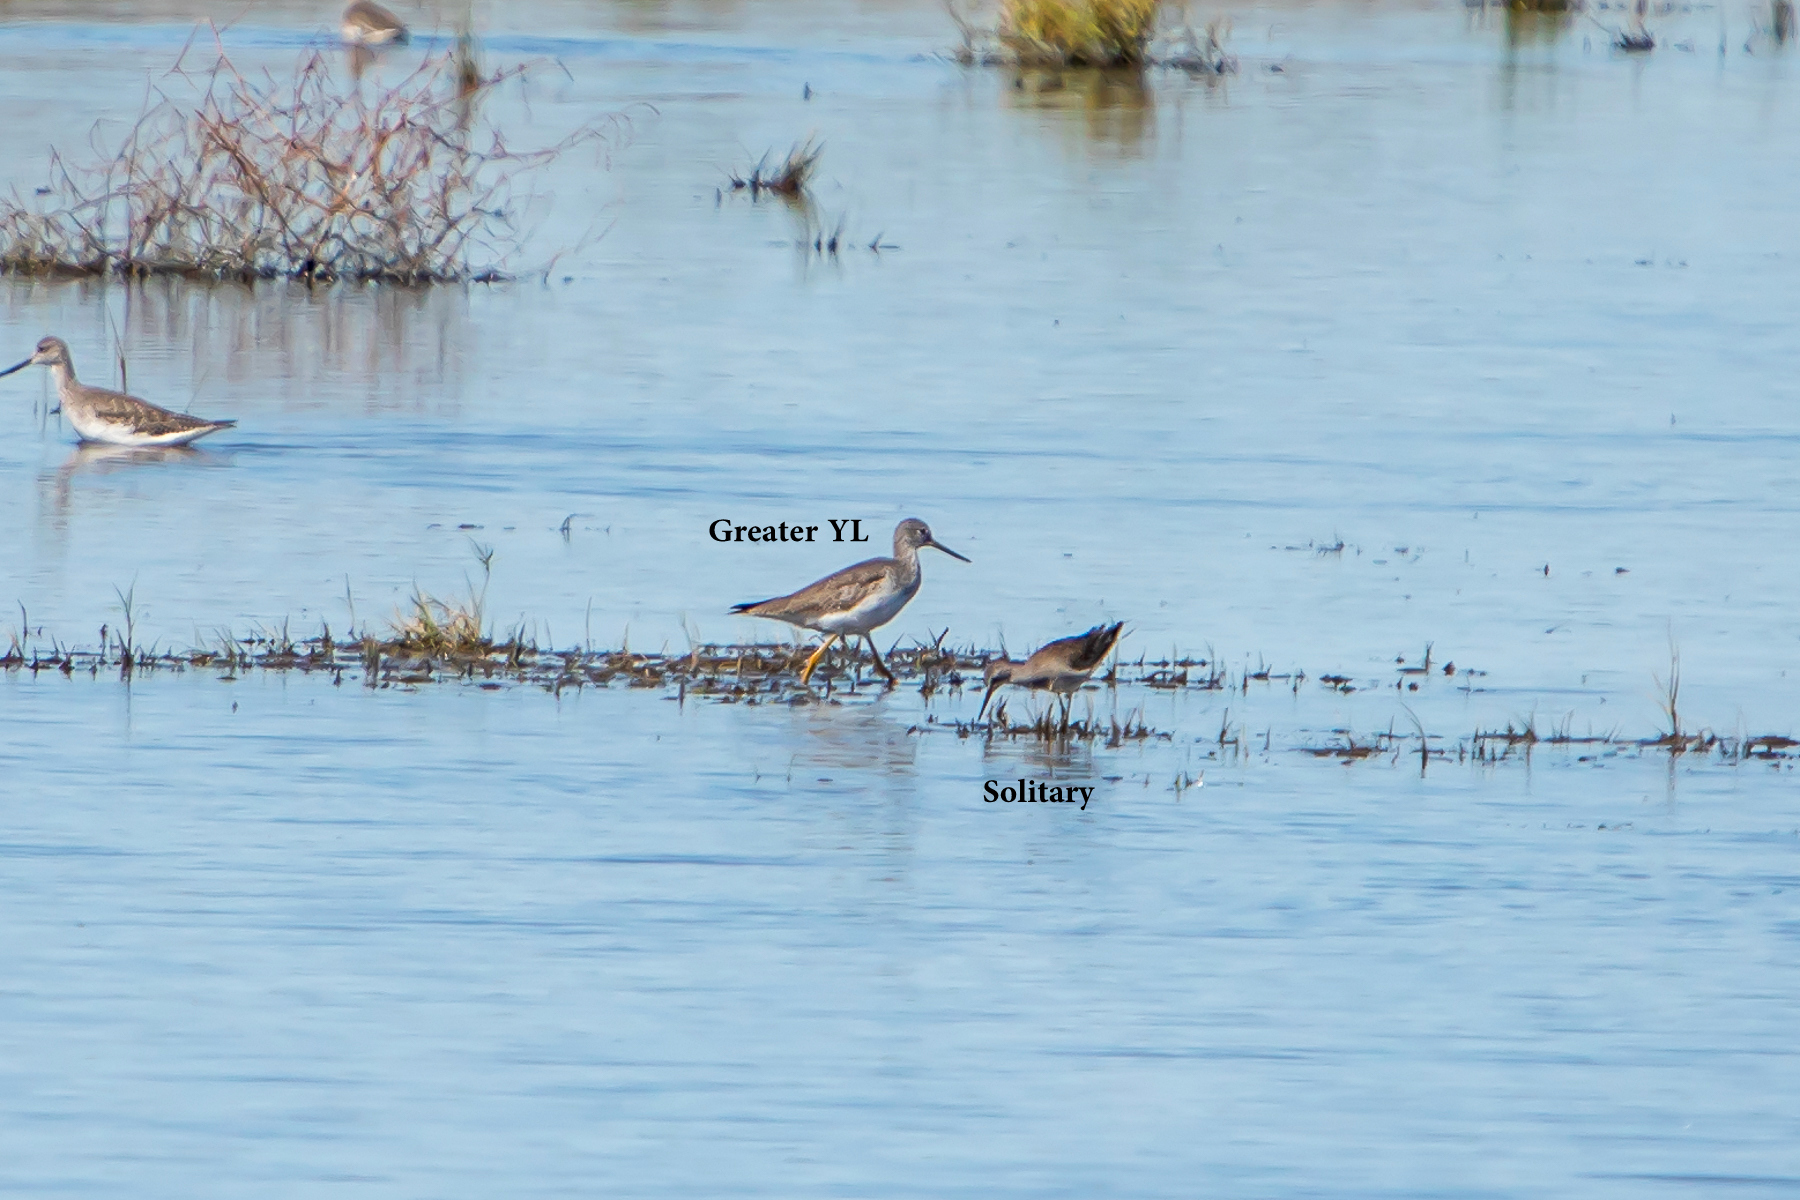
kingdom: Animalia
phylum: Chordata
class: Aves
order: Charadriiformes
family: Scolopacidae
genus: Tringa
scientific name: Tringa melanoleuca
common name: Greater yellowlegs
